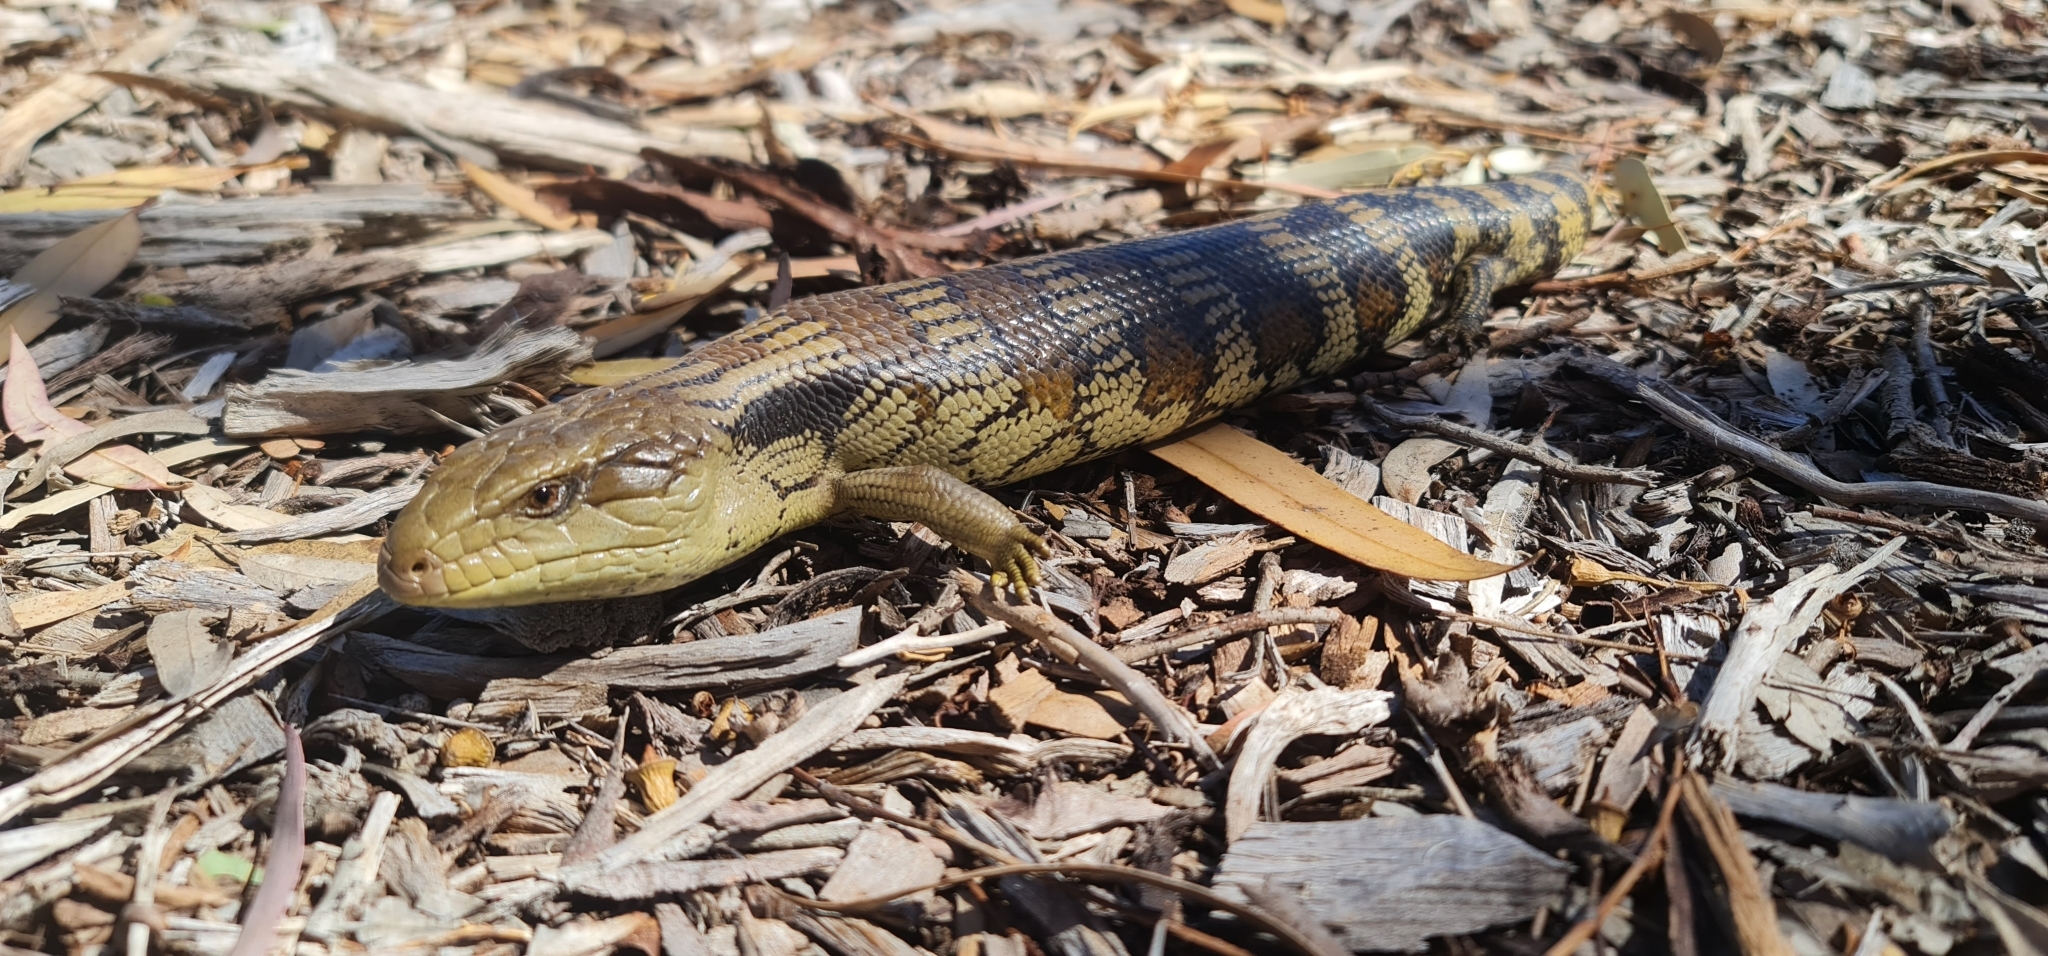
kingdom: Animalia
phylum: Chordata
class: Squamata
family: Scincidae
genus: Tiliqua
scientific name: Tiliqua scincoides
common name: Common bluetongue
